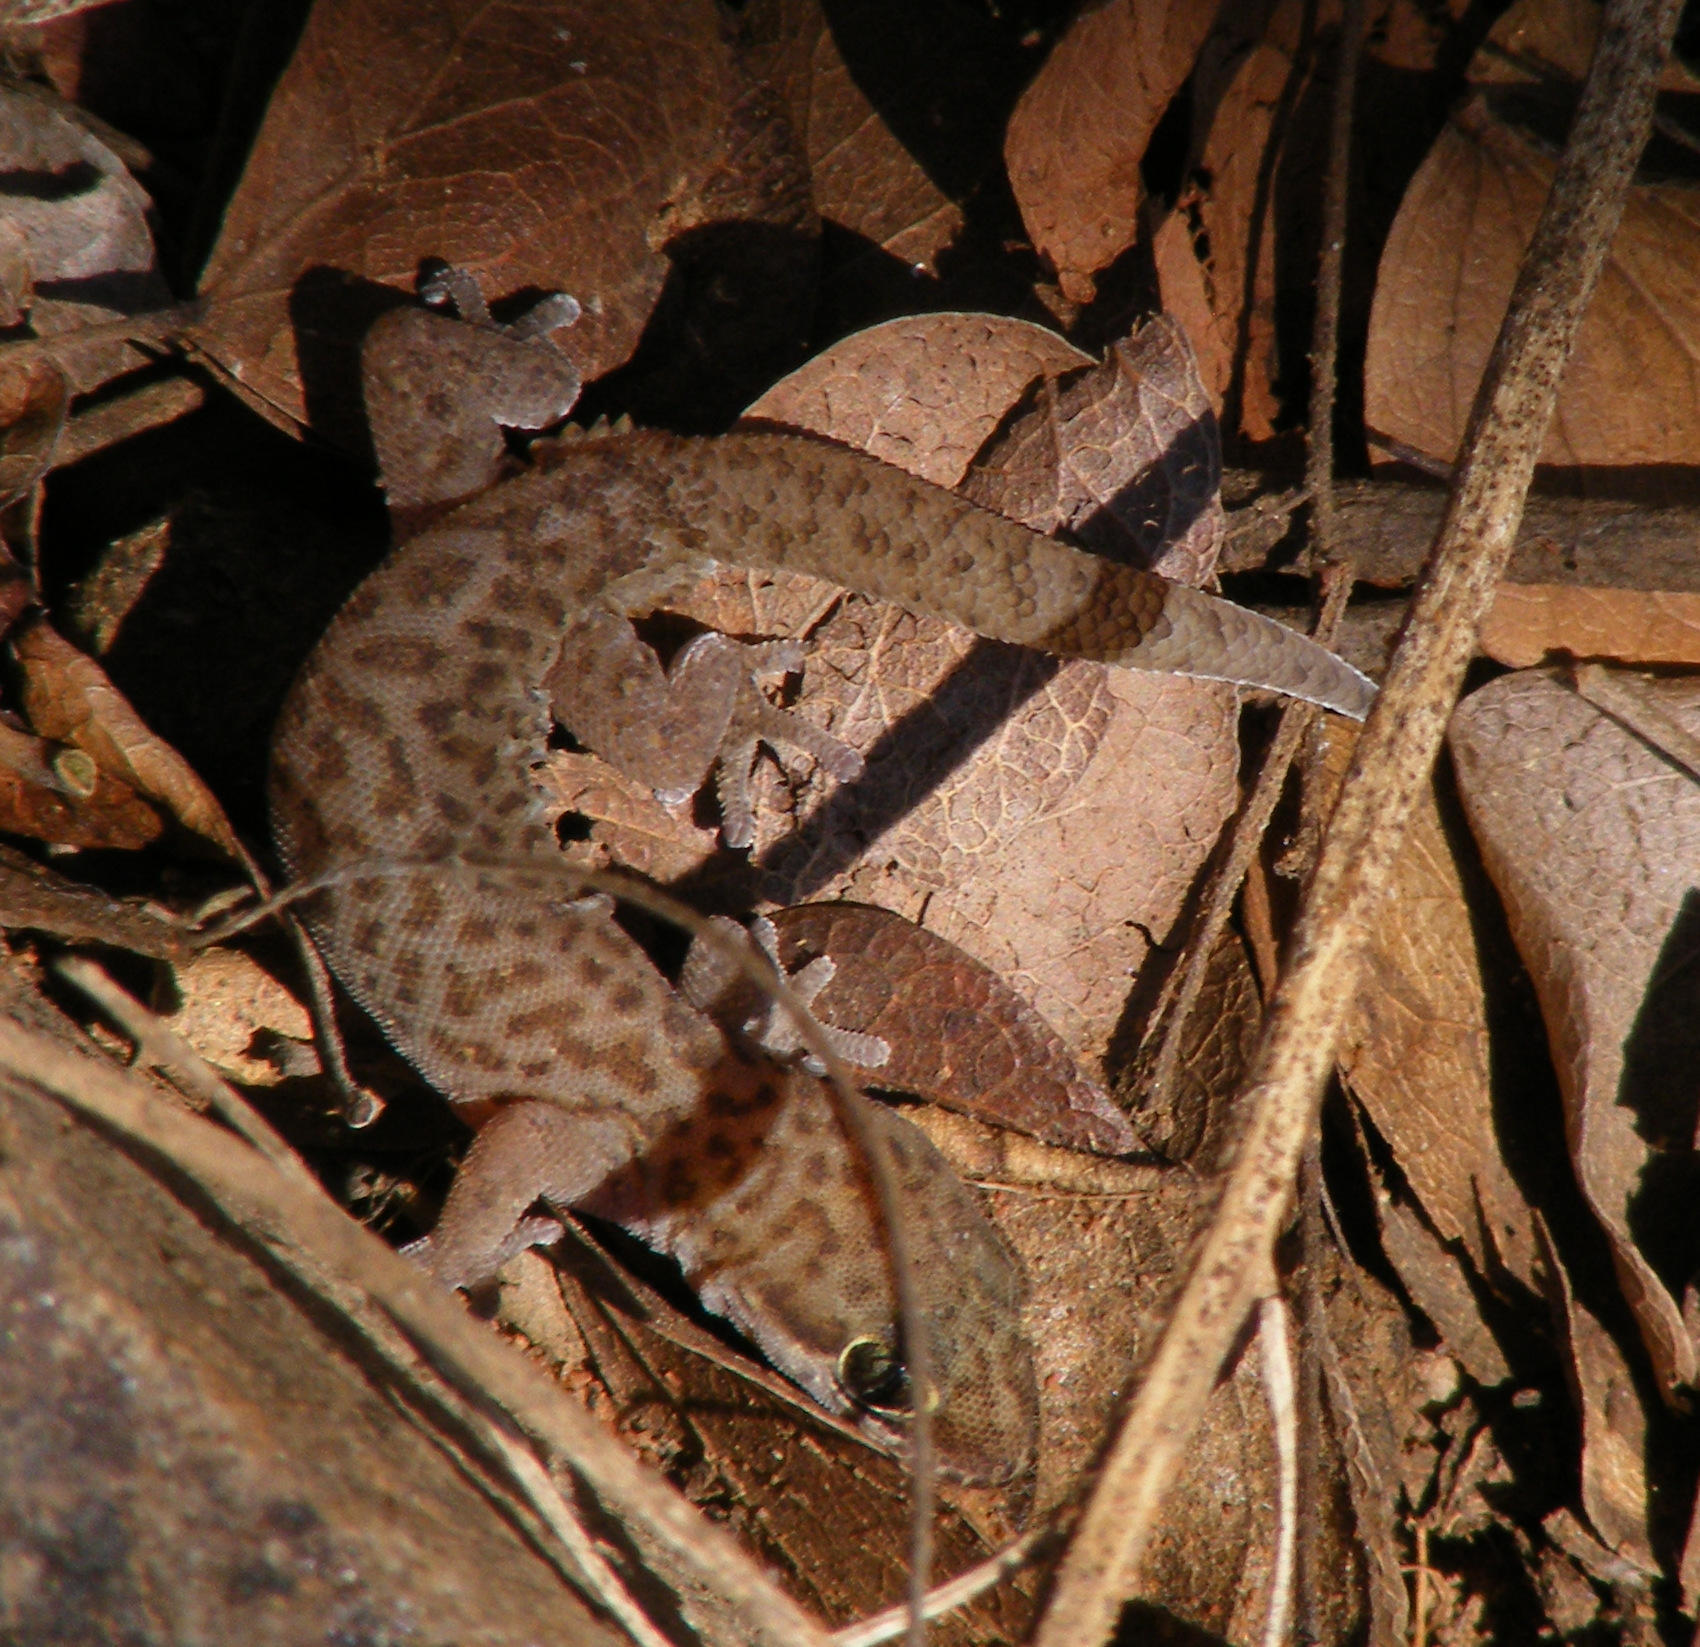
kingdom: Animalia
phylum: Chordata
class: Squamata
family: Gekkonidae
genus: Pachydactylus
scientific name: Pachydactylus punctatus
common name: Pointed thick-toed gecko
